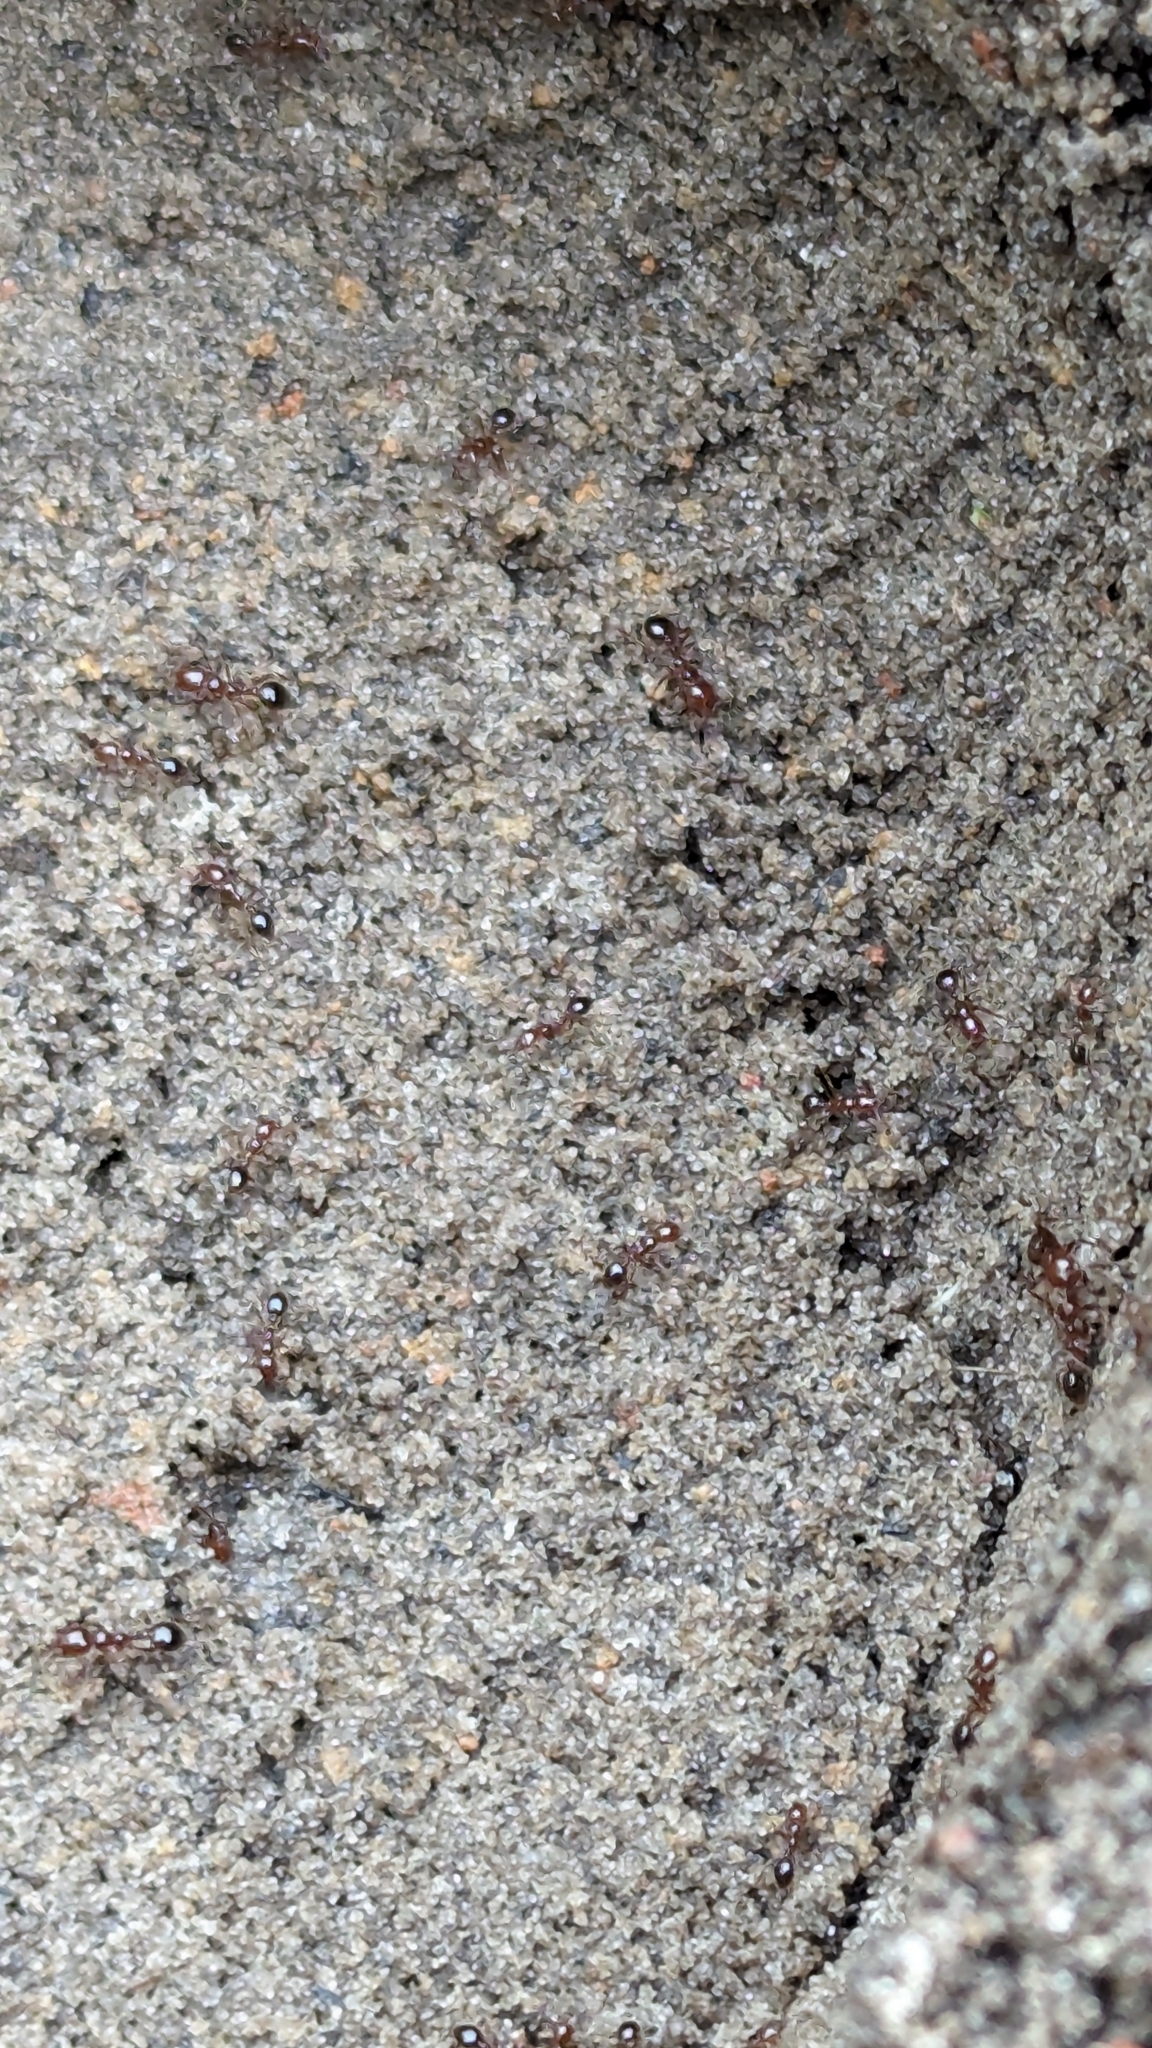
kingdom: Animalia
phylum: Arthropoda
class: Insecta
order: Hymenoptera
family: Formicidae
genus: Solenopsis
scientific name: Solenopsis invicta
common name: Red imported fire ant
